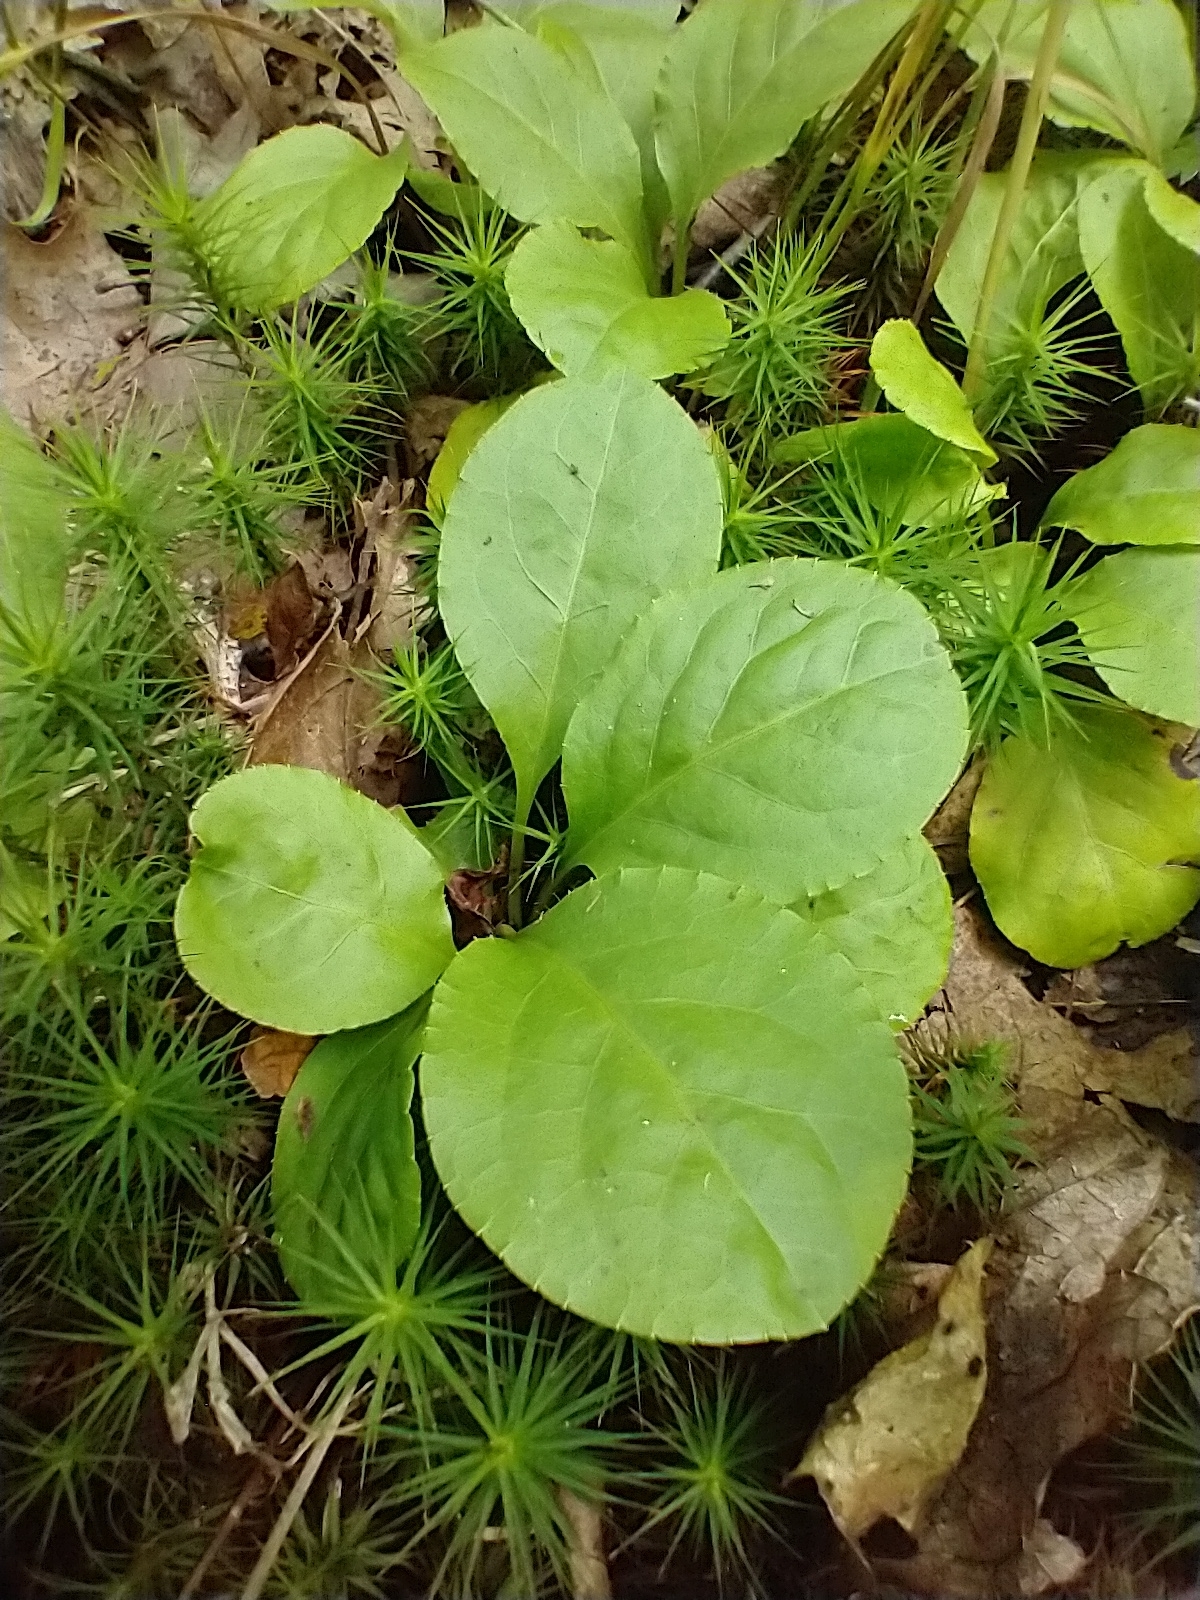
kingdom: Plantae
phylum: Tracheophyta
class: Magnoliopsida
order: Ericales
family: Ericaceae
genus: Pyrola
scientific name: Pyrola elliptica
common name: Shinleaf
